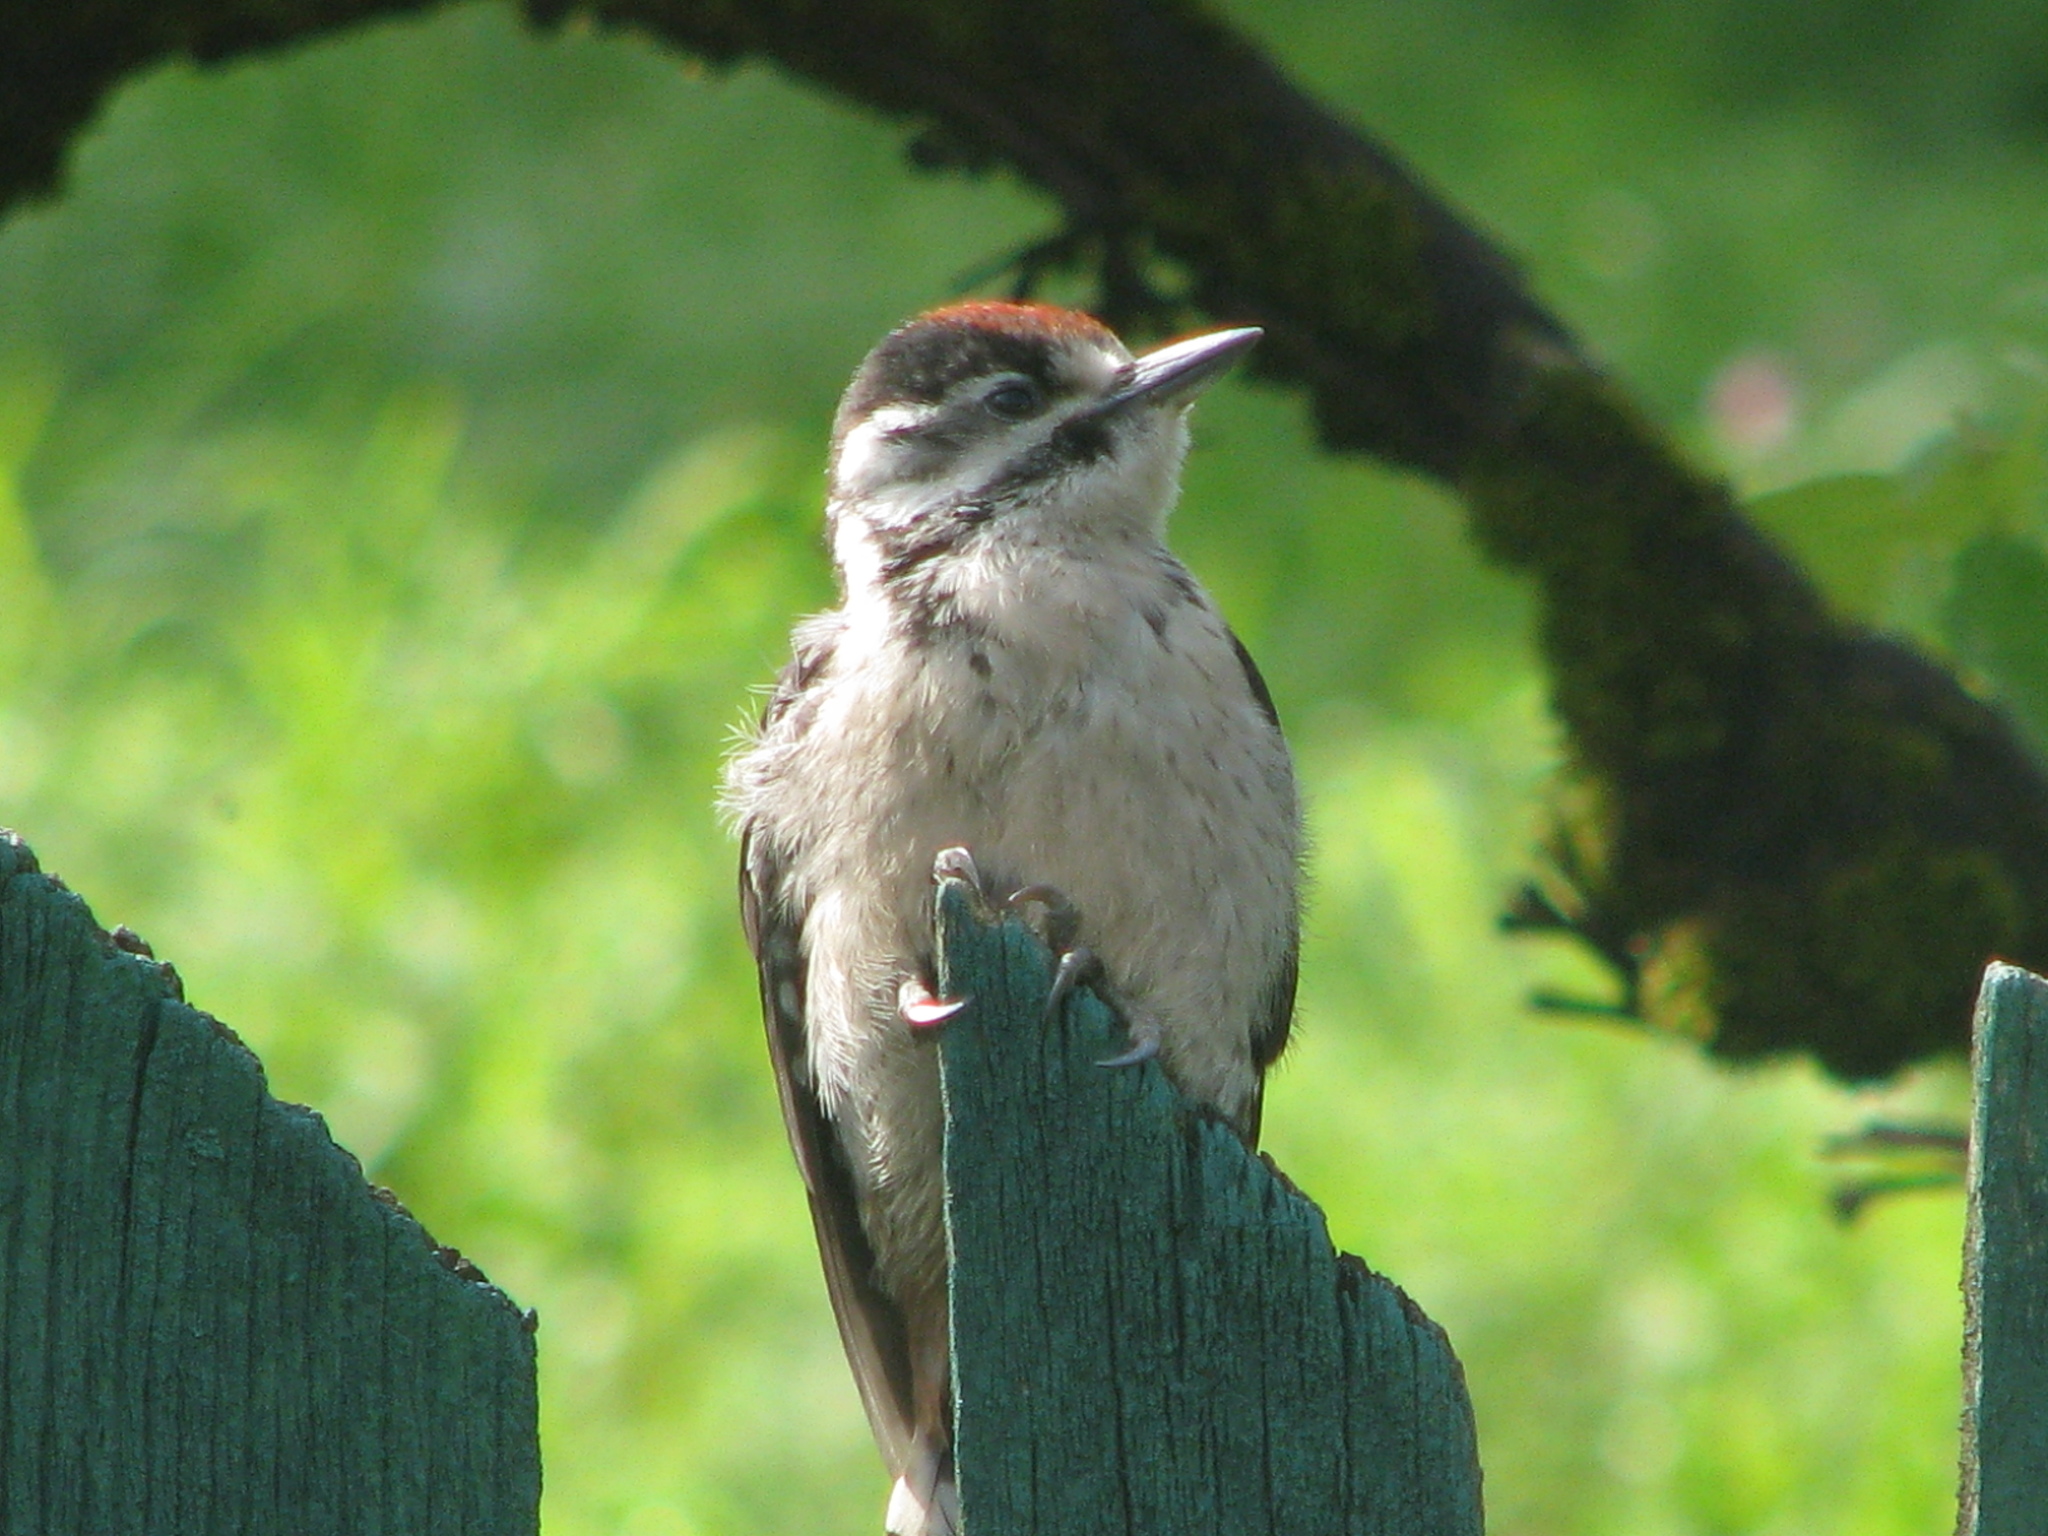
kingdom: Animalia
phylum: Chordata
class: Aves
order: Piciformes
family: Picidae
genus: Dryobates
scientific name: Dryobates minor
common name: Lesser spotted woodpecker
